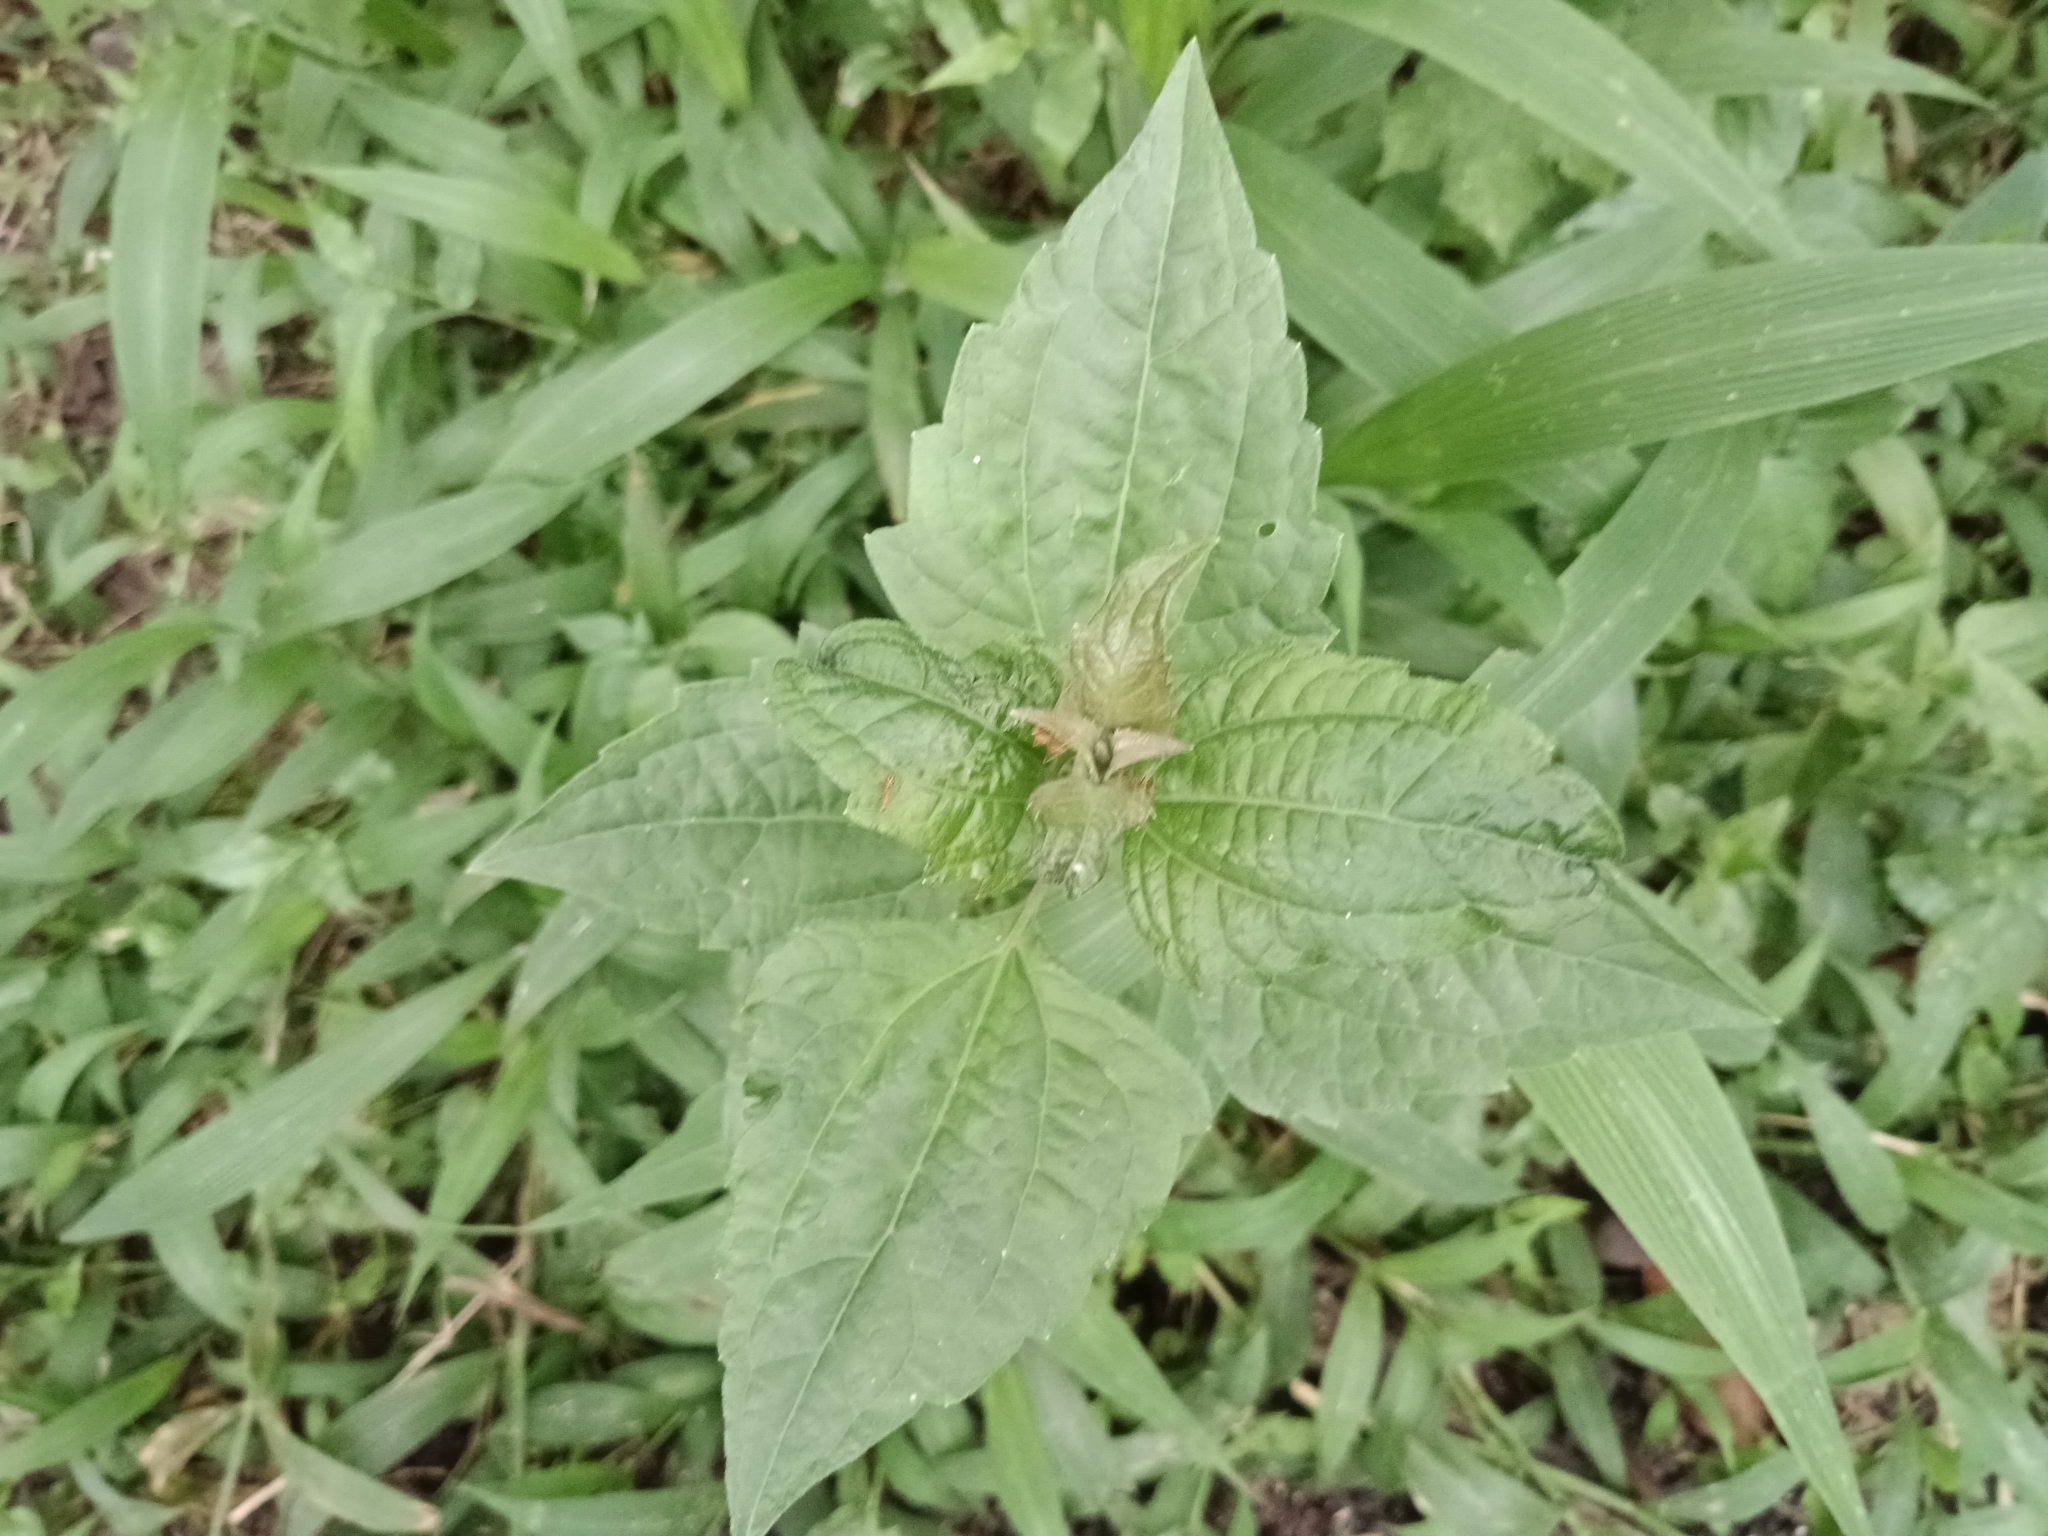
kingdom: Plantae
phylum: Tracheophyta
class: Magnoliopsida
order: Asterales
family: Asteraceae
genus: Chromolaena
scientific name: Chromolaena odorata
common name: Siamweed
